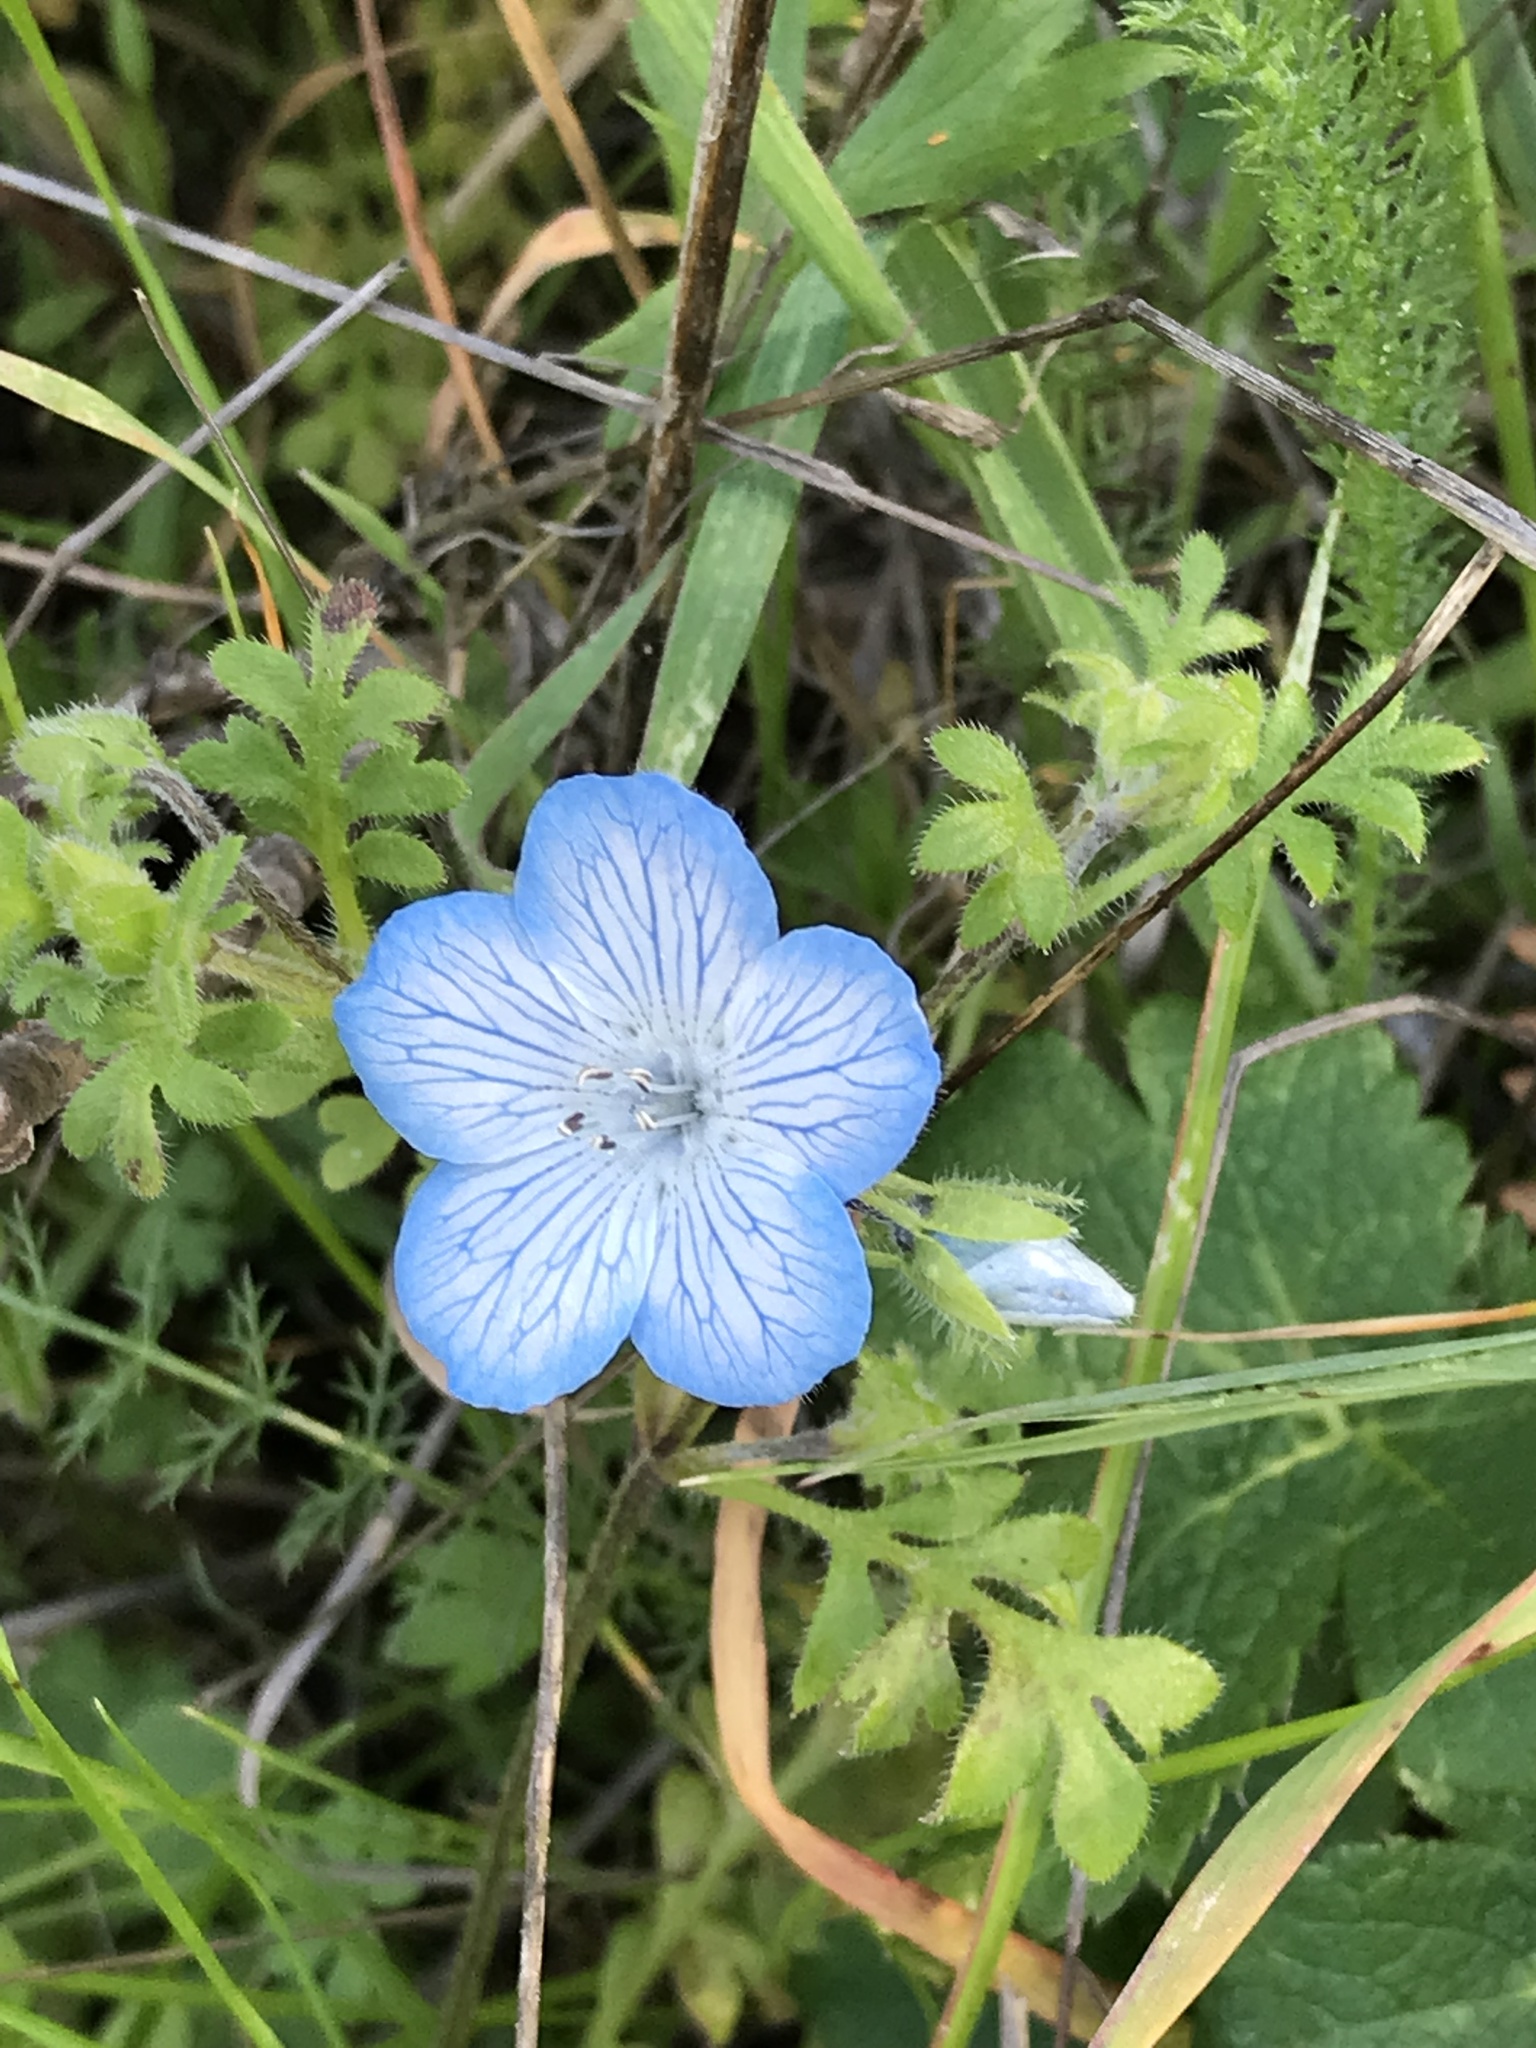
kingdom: Plantae
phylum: Tracheophyta
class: Magnoliopsida
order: Boraginales
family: Hydrophyllaceae
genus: Nemophila
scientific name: Nemophila menziesii
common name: Baby's-blue-eyes
